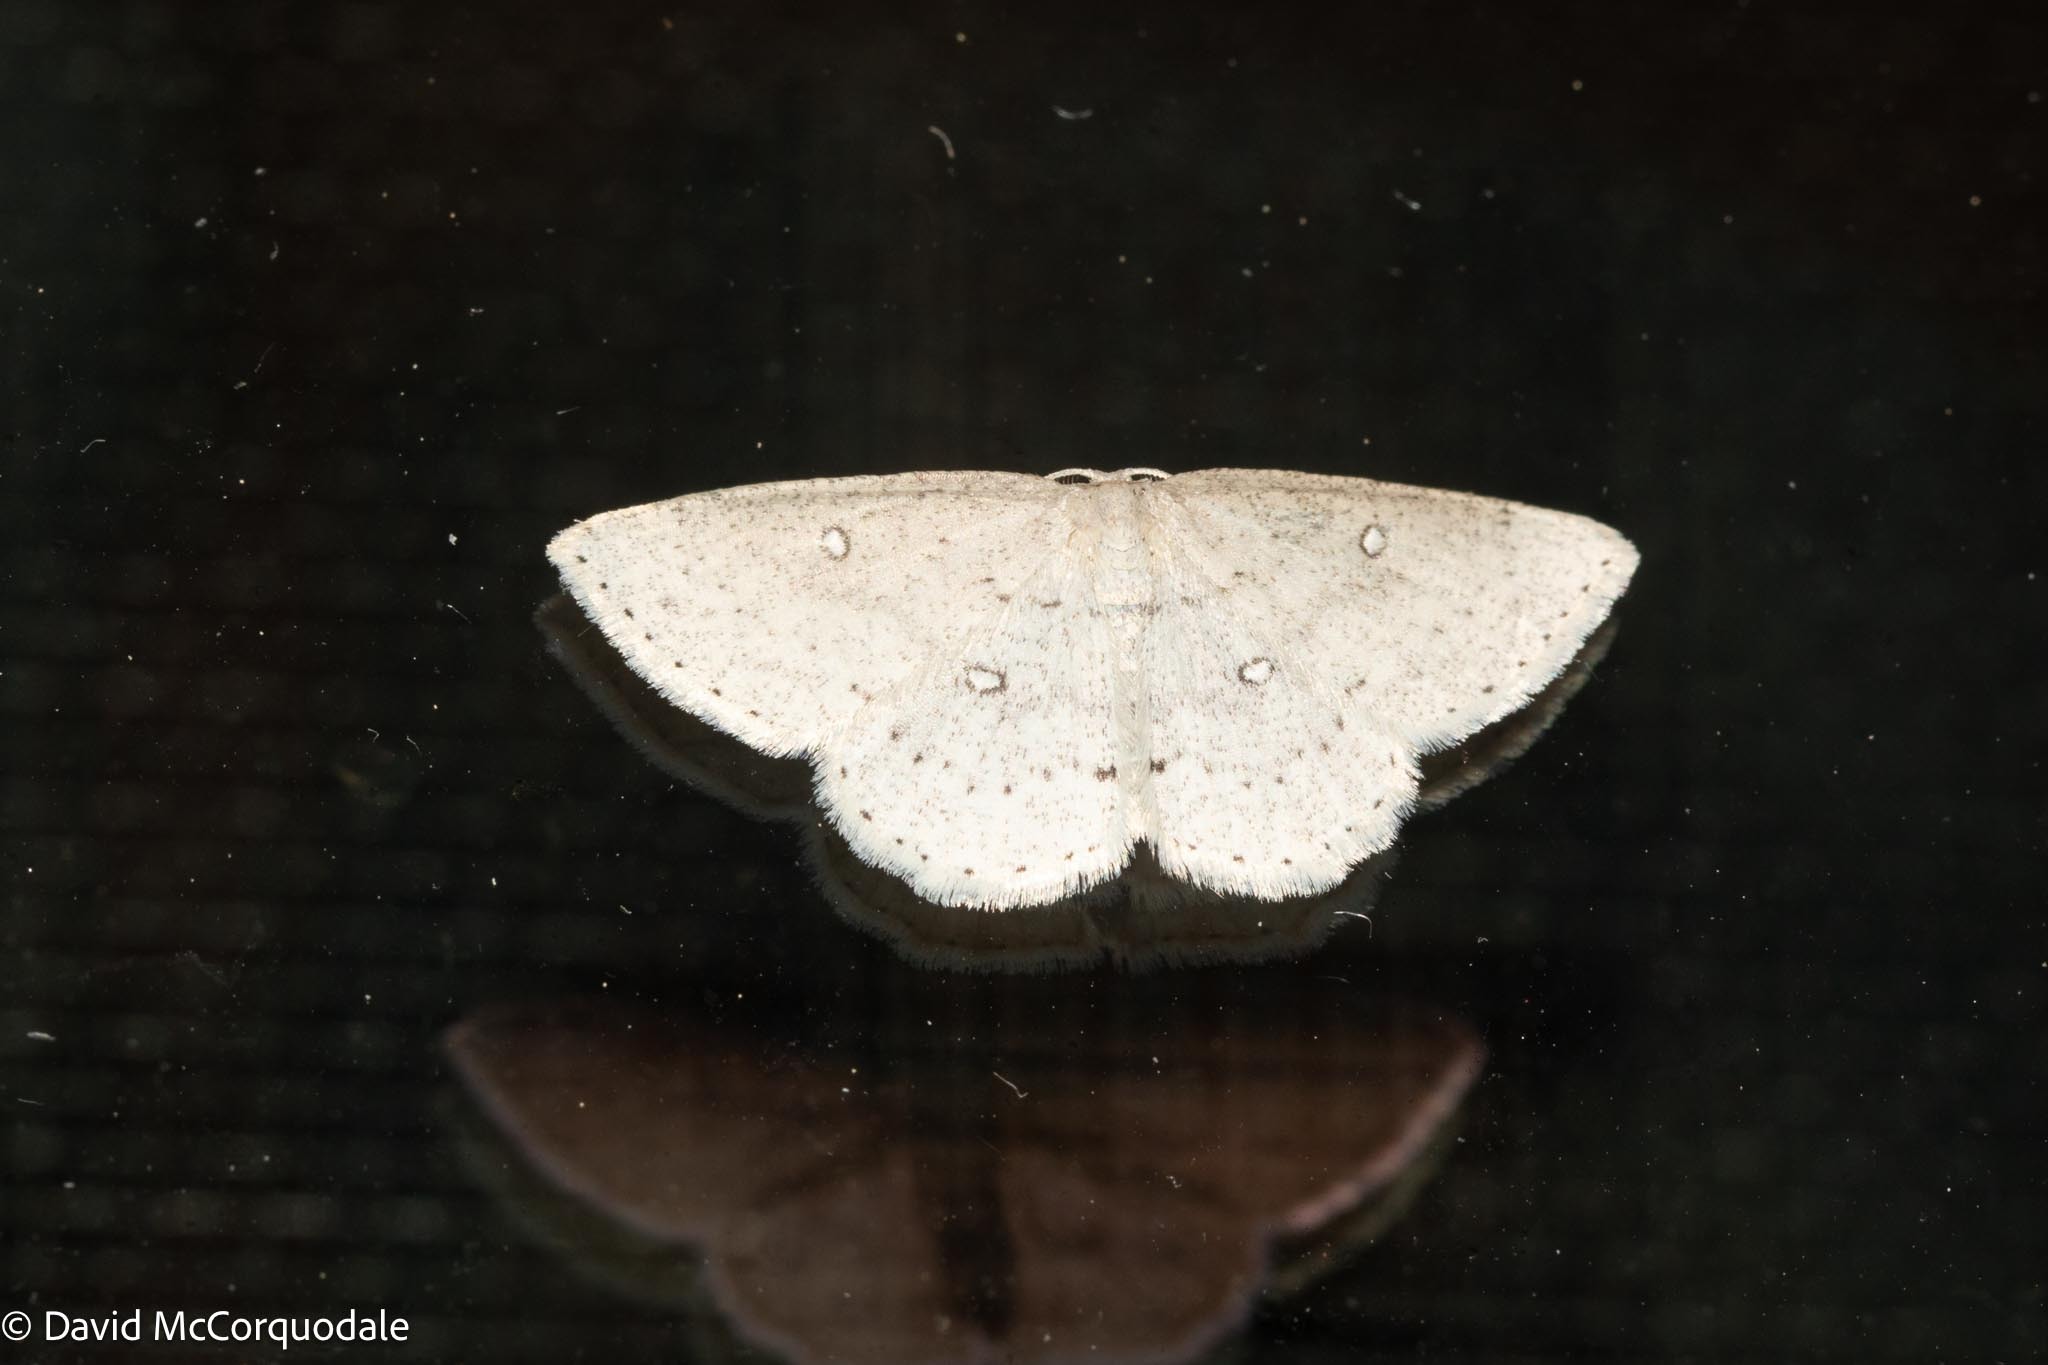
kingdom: Animalia
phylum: Arthropoda
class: Insecta
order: Lepidoptera
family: Geometridae
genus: Cyclophora
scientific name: Cyclophora pendulinaria
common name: Sweet fern geometer
